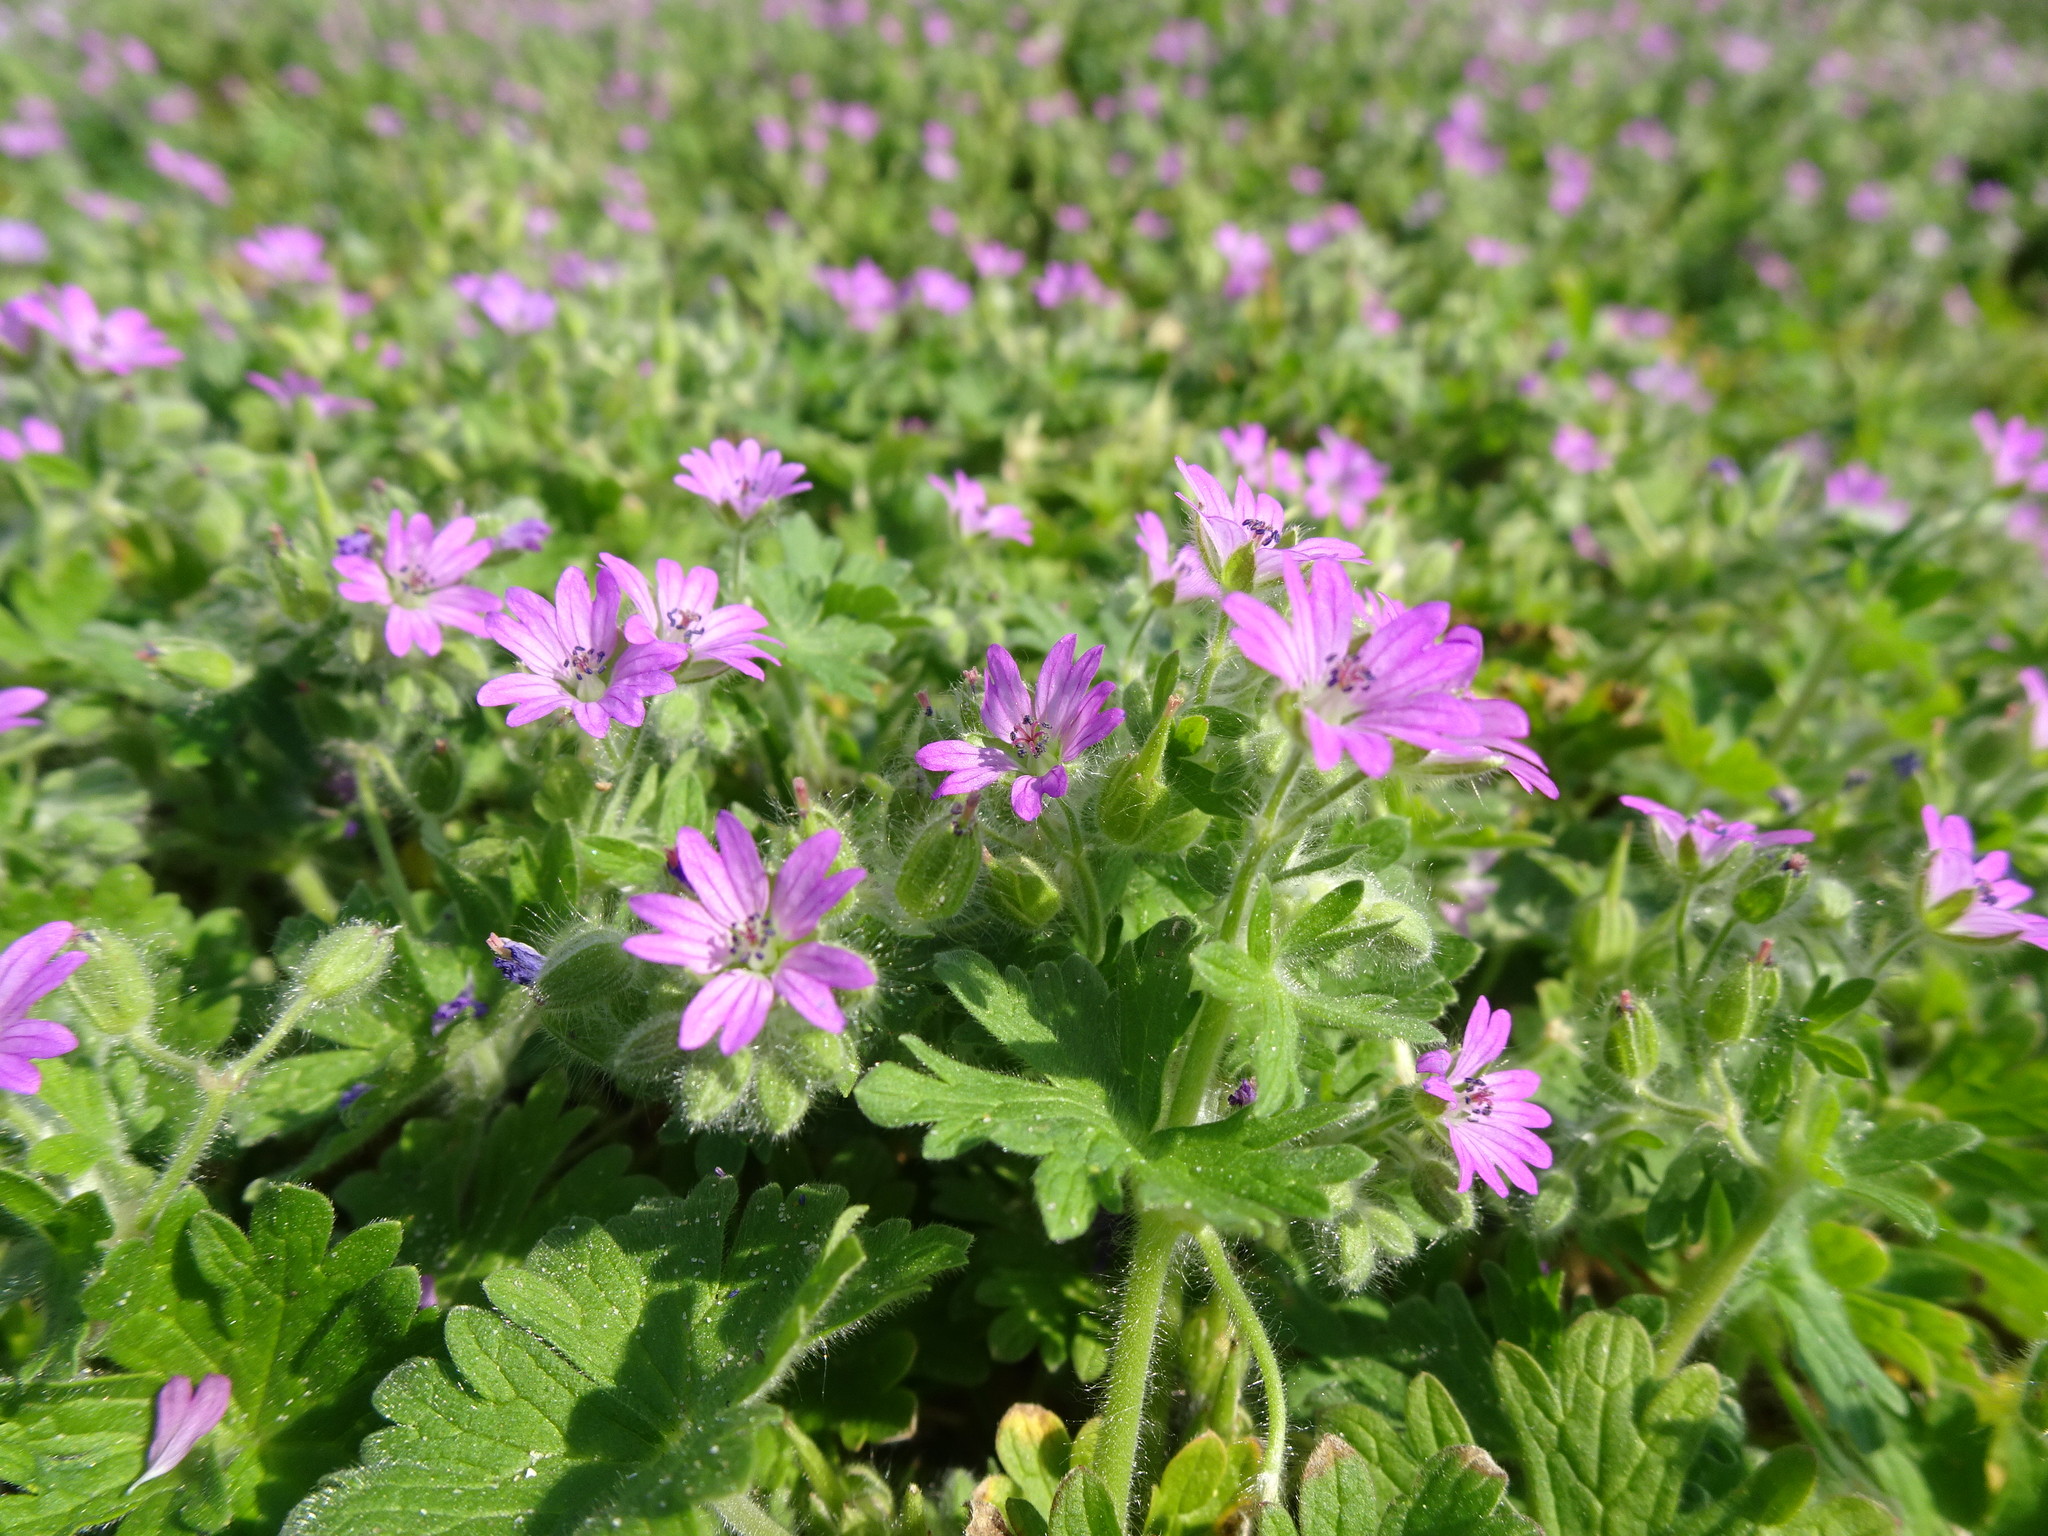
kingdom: Plantae
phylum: Tracheophyta
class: Magnoliopsida
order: Geraniales
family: Geraniaceae
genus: Geranium
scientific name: Geranium molle
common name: Dove's-foot crane's-bill
